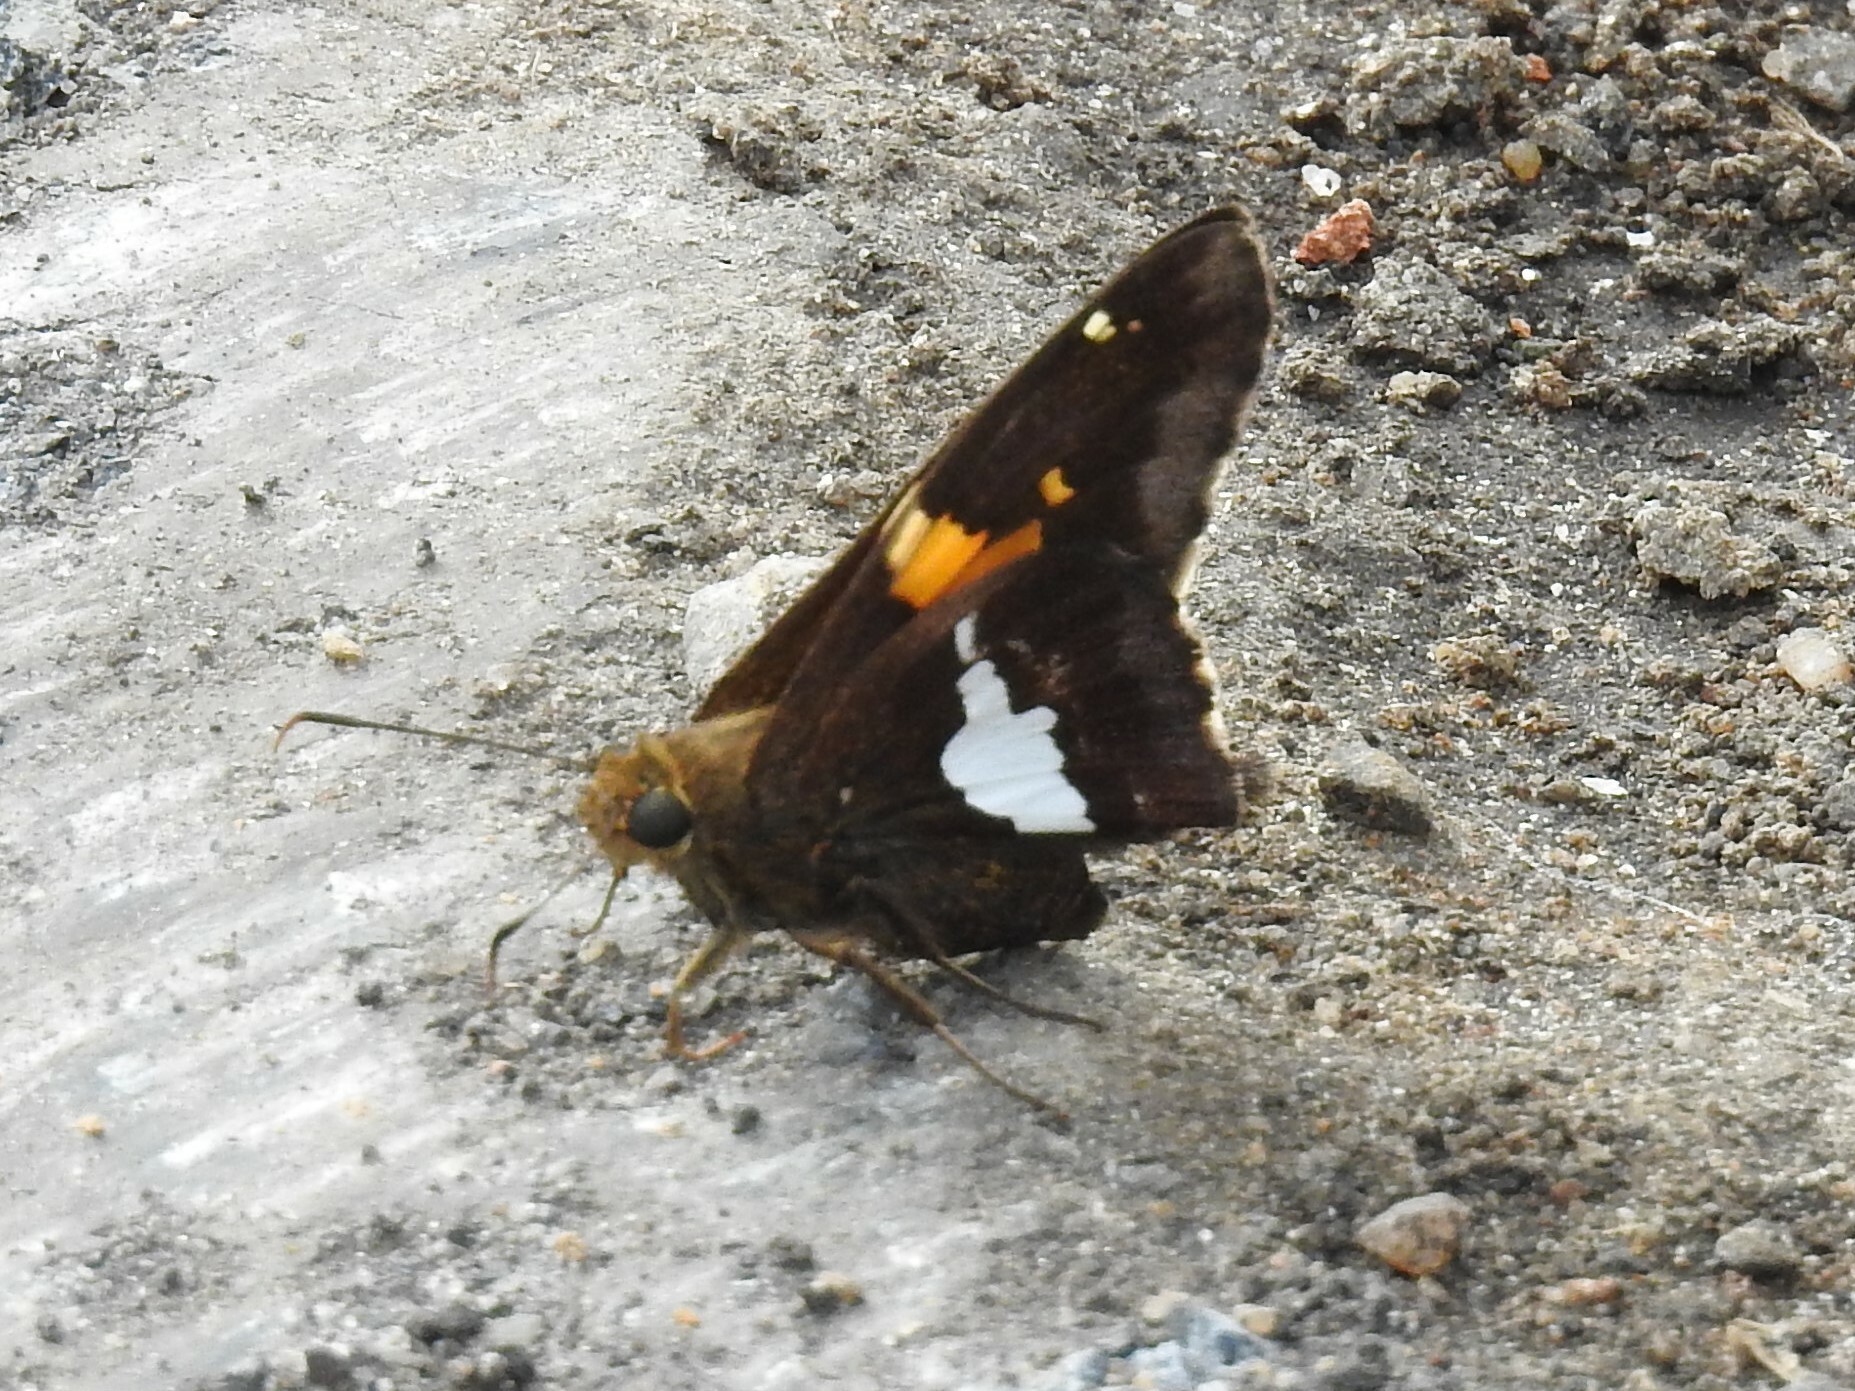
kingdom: Animalia
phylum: Arthropoda
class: Insecta
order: Lepidoptera
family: Hesperiidae
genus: Epargyreus
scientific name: Epargyreus clarus
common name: Silver-spotted skipper
